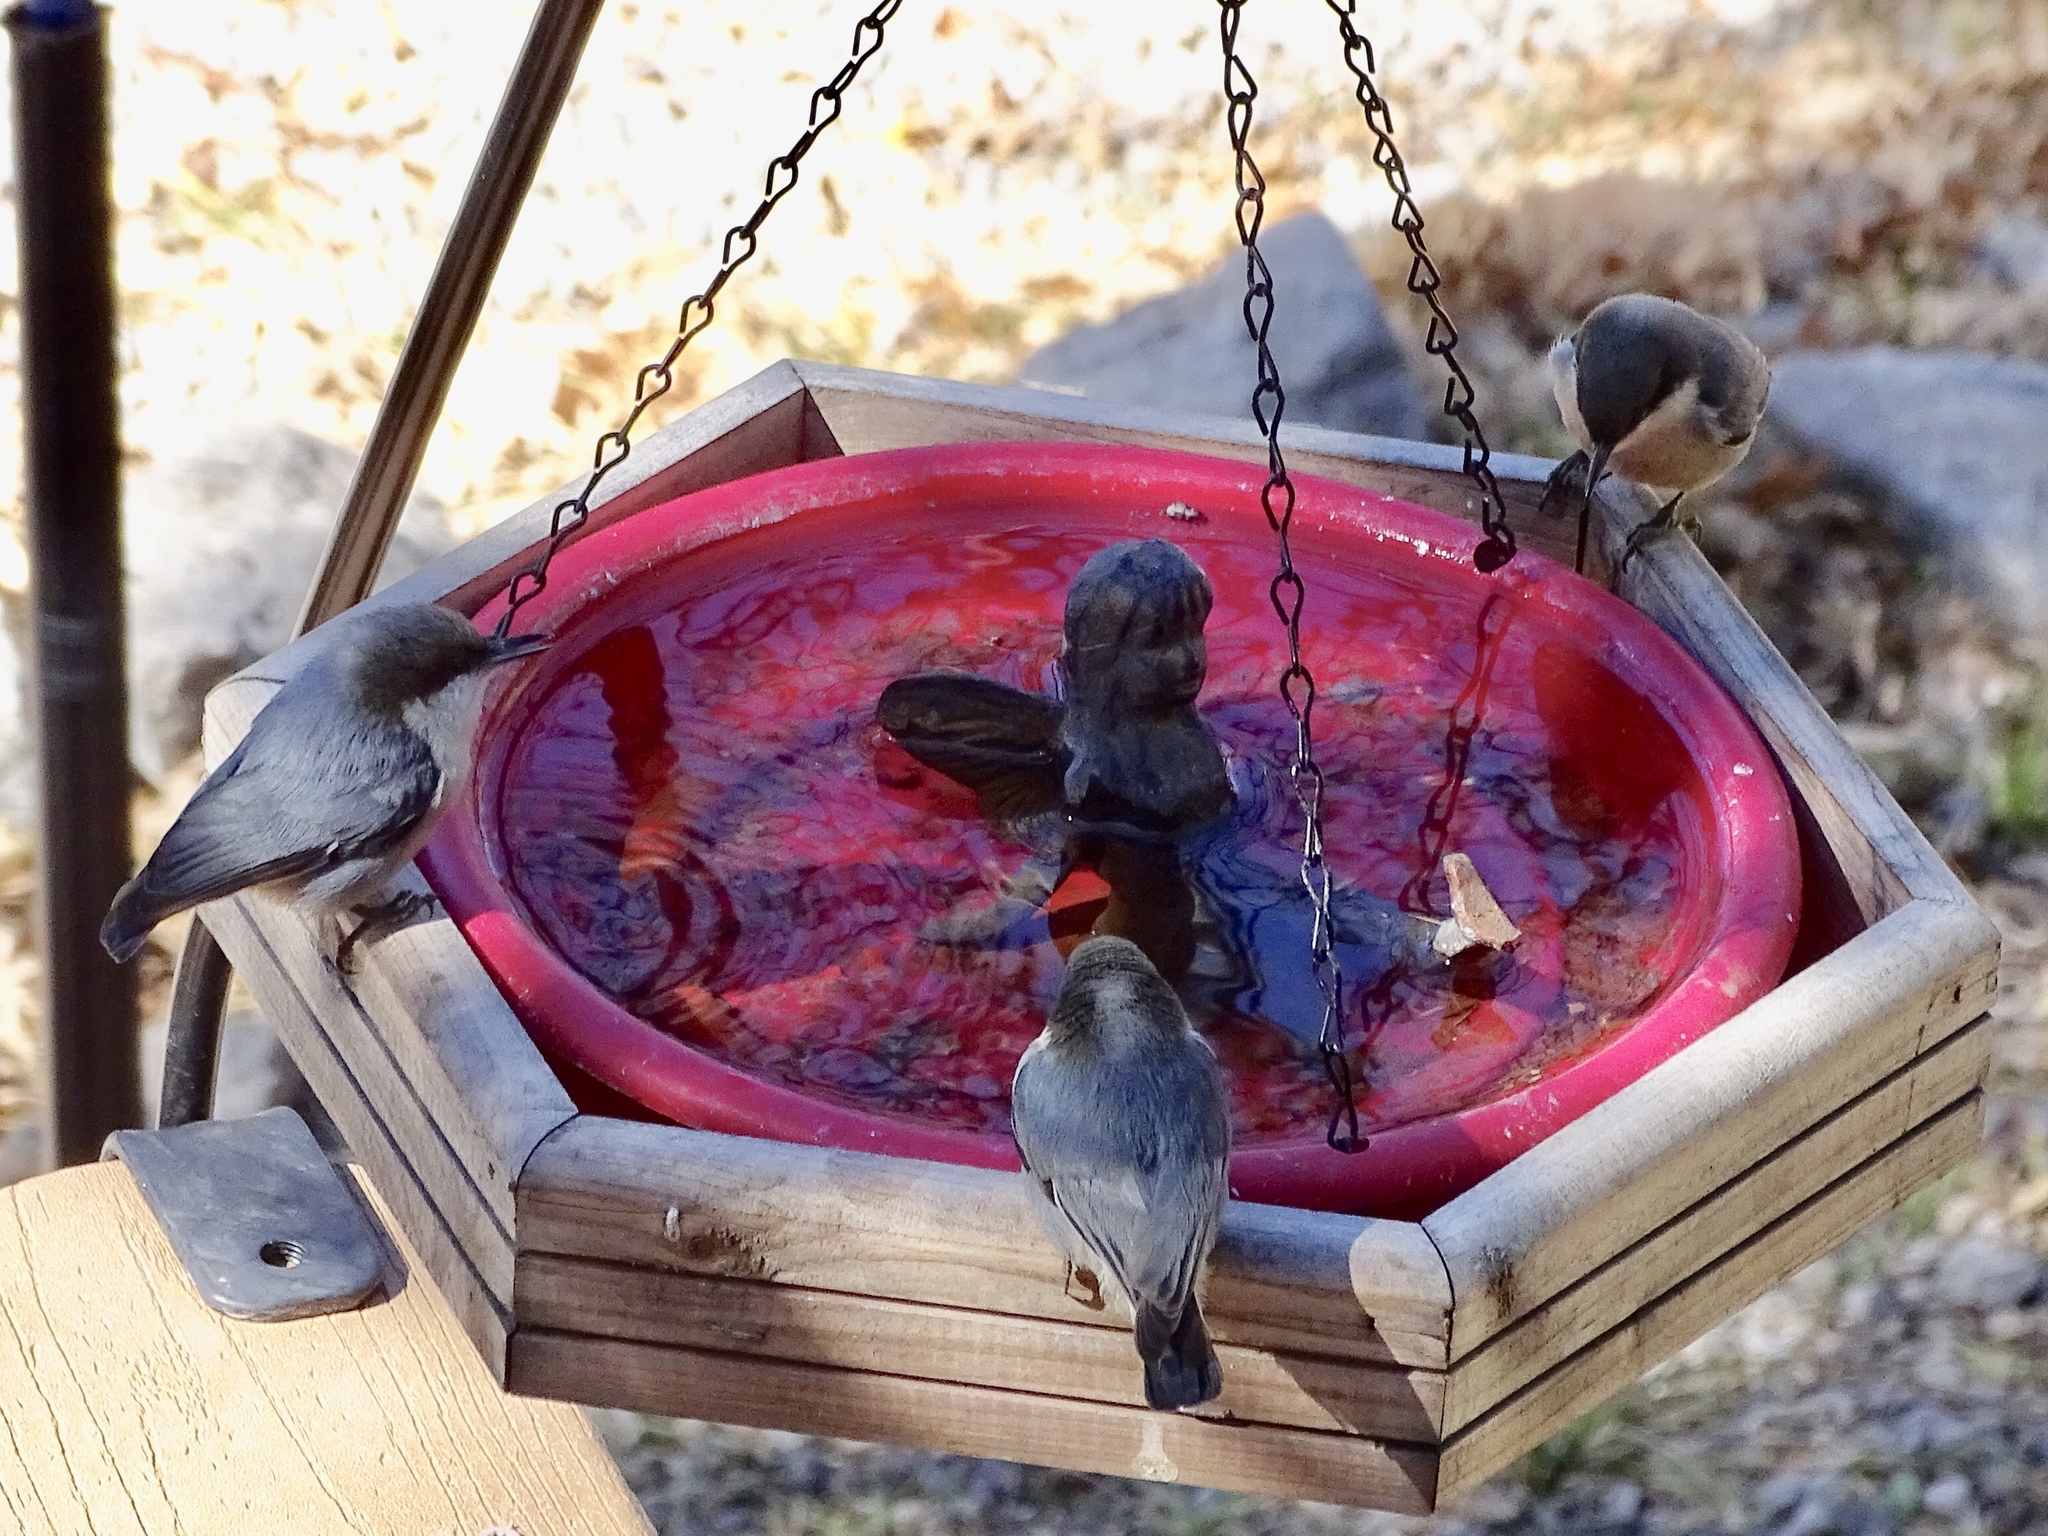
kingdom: Animalia
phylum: Chordata
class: Aves
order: Passeriformes
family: Sittidae
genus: Sitta
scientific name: Sitta pygmaea
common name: Pygmy nuthatch
